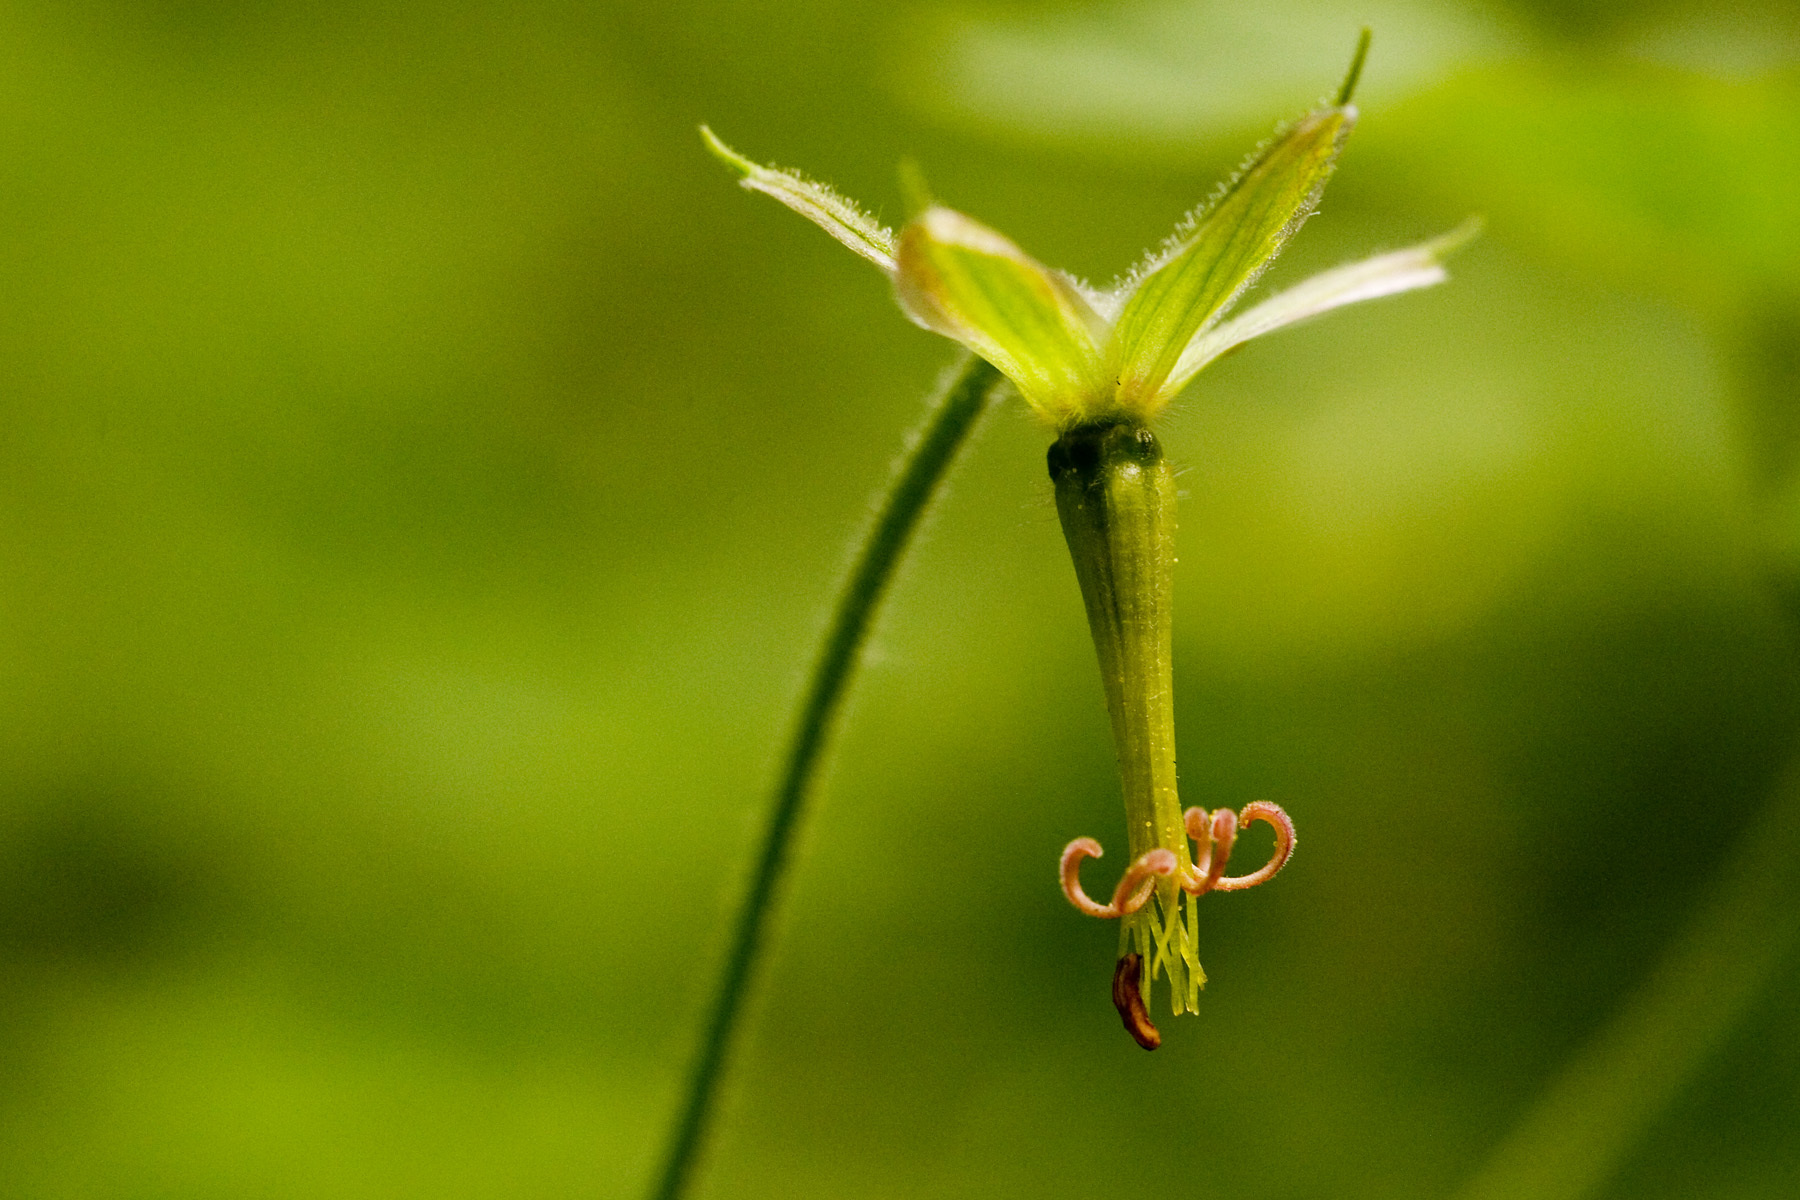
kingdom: Plantae
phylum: Tracheophyta
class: Magnoliopsida
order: Geraniales
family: Geraniaceae
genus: Geranium
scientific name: Geranium dodecatheoides
